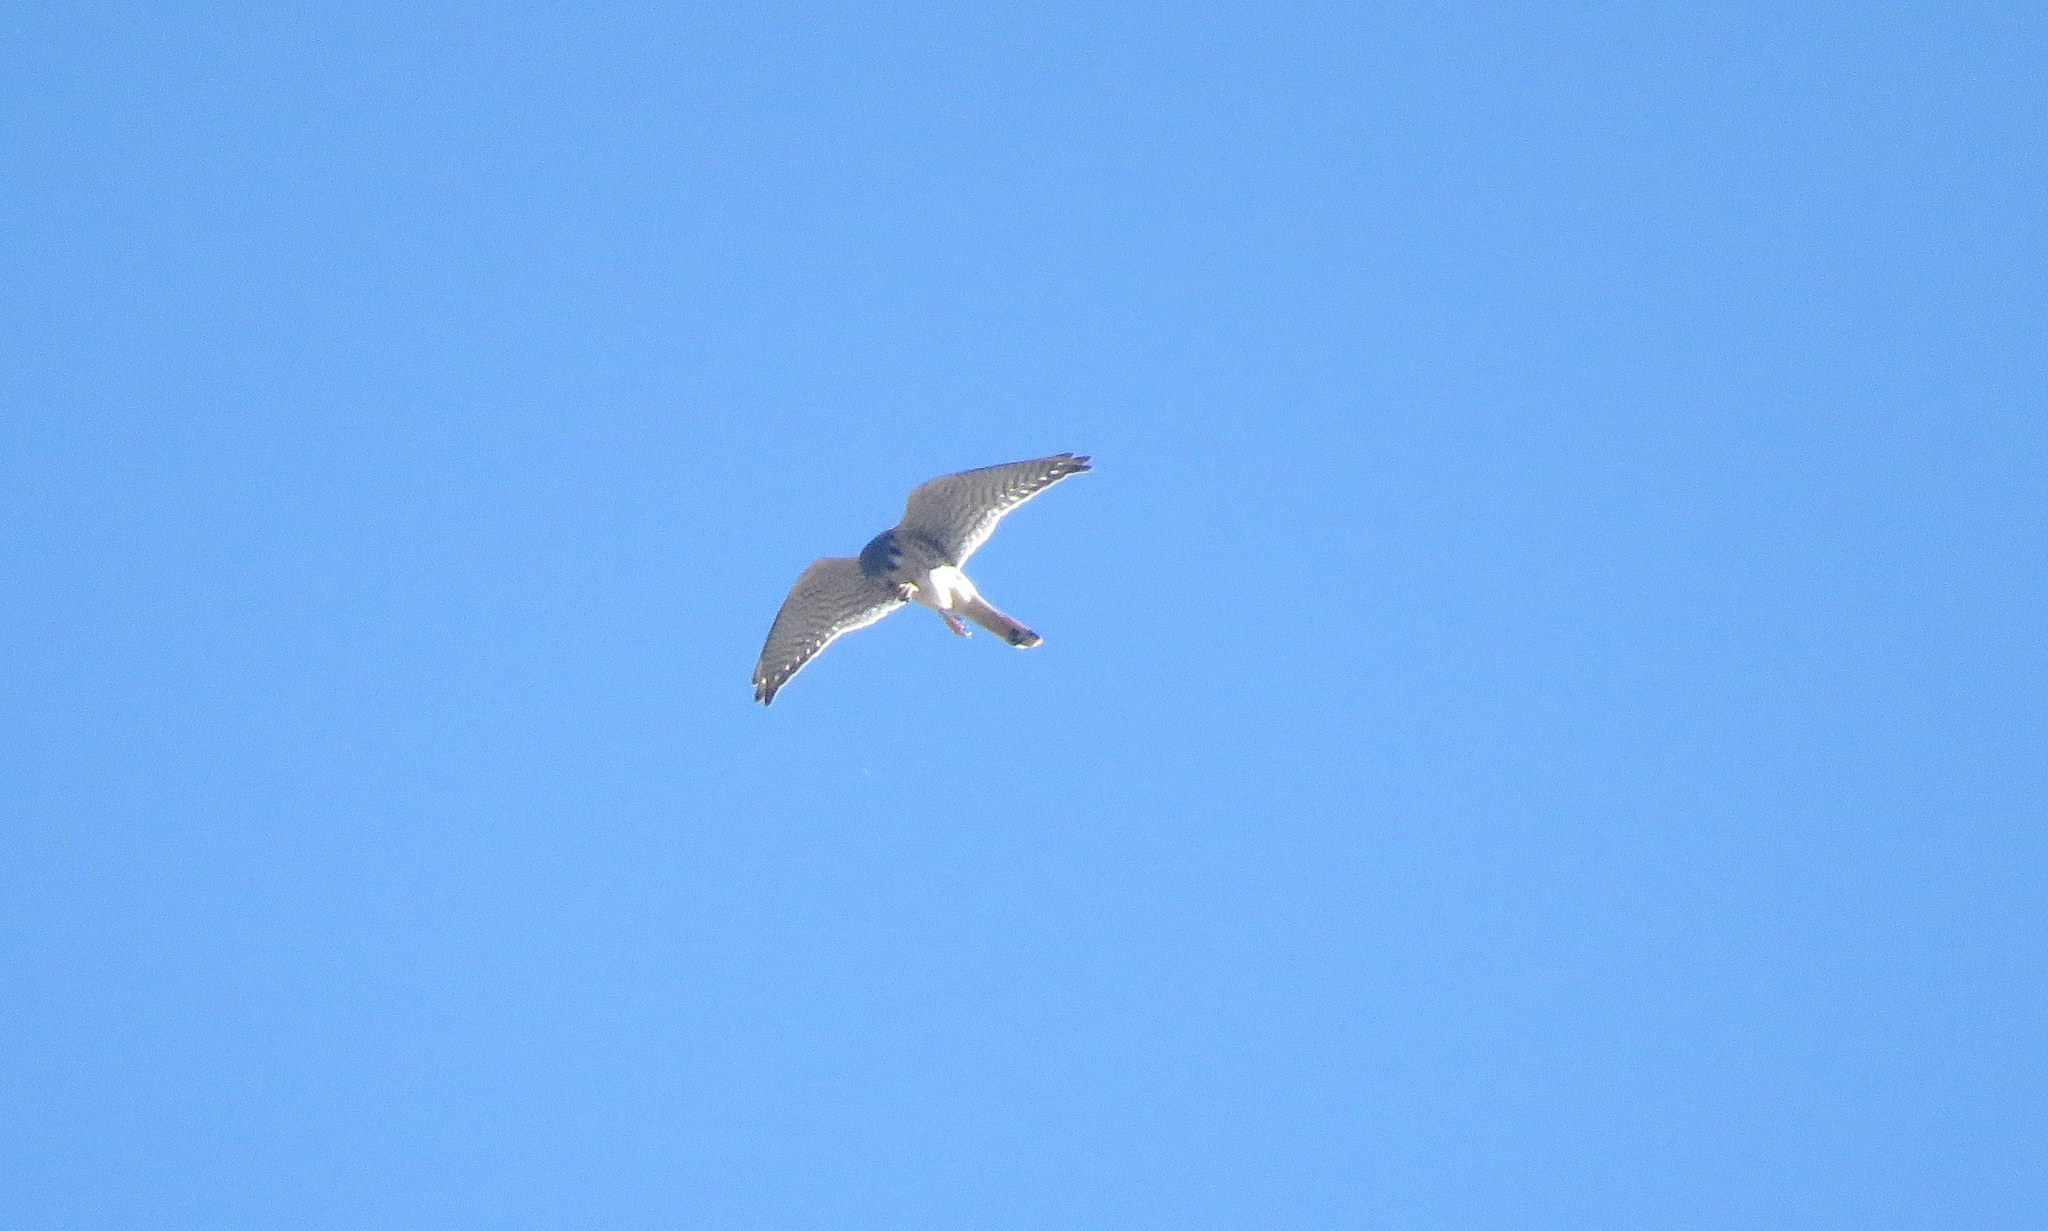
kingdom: Animalia
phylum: Chordata
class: Aves
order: Falconiformes
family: Falconidae
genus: Falco
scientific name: Falco sparverius
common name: American kestrel
